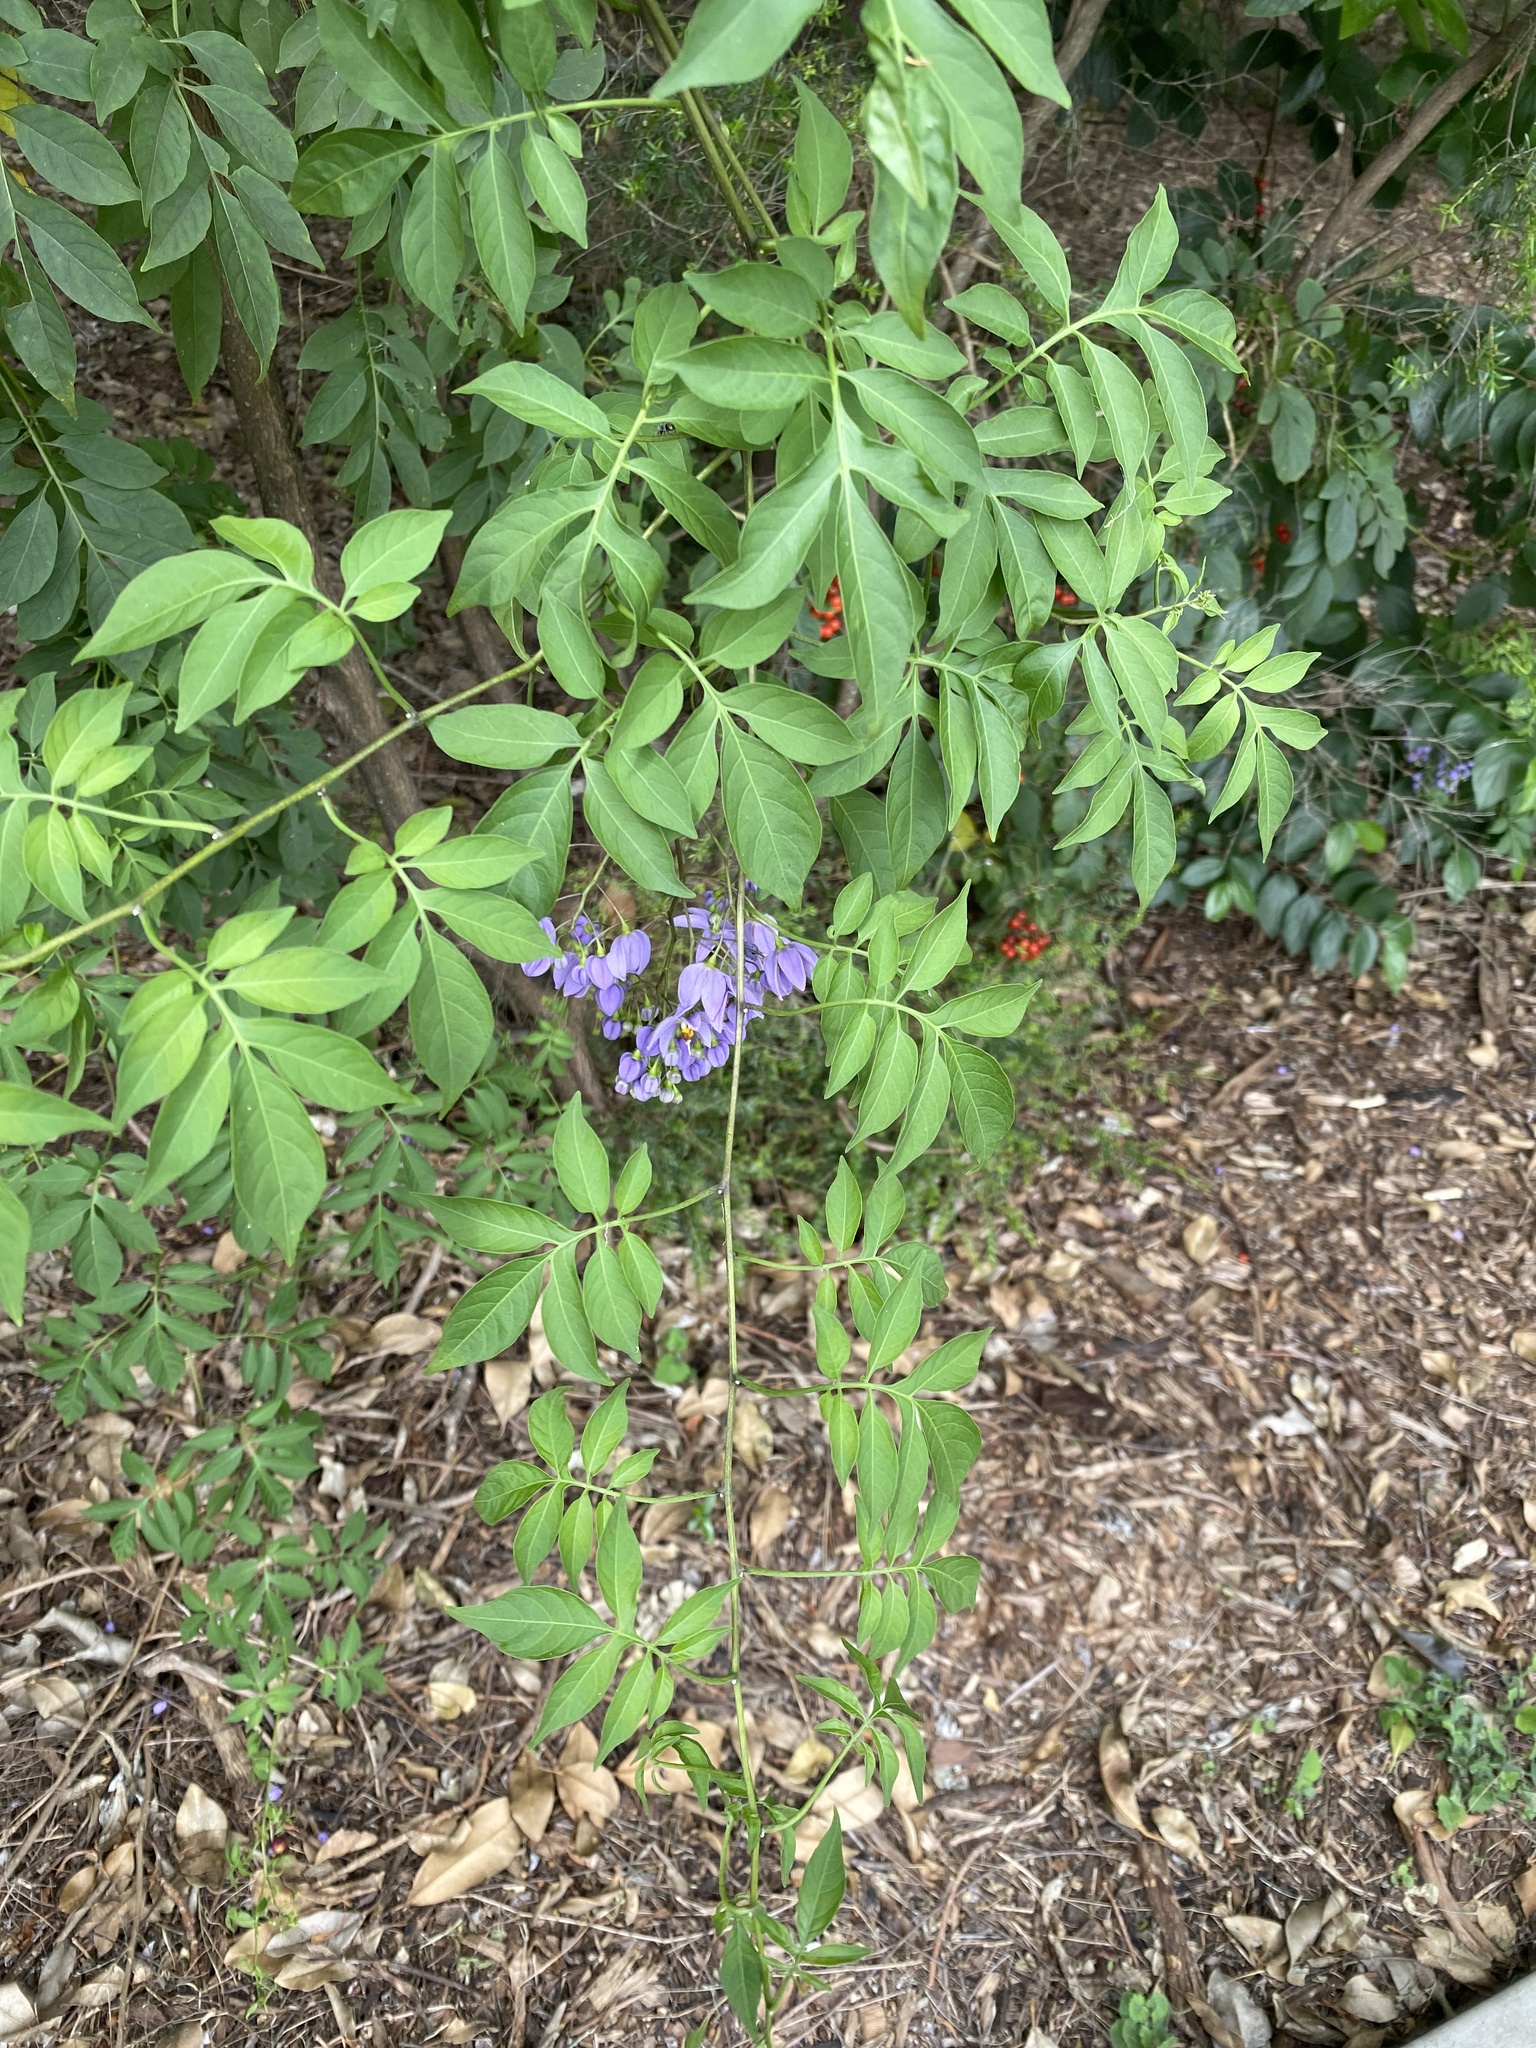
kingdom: Plantae
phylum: Tracheophyta
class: Magnoliopsida
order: Solanales
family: Solanaceae
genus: Solanum
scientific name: Solanum seaforthianum
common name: Brazilian nightshade
